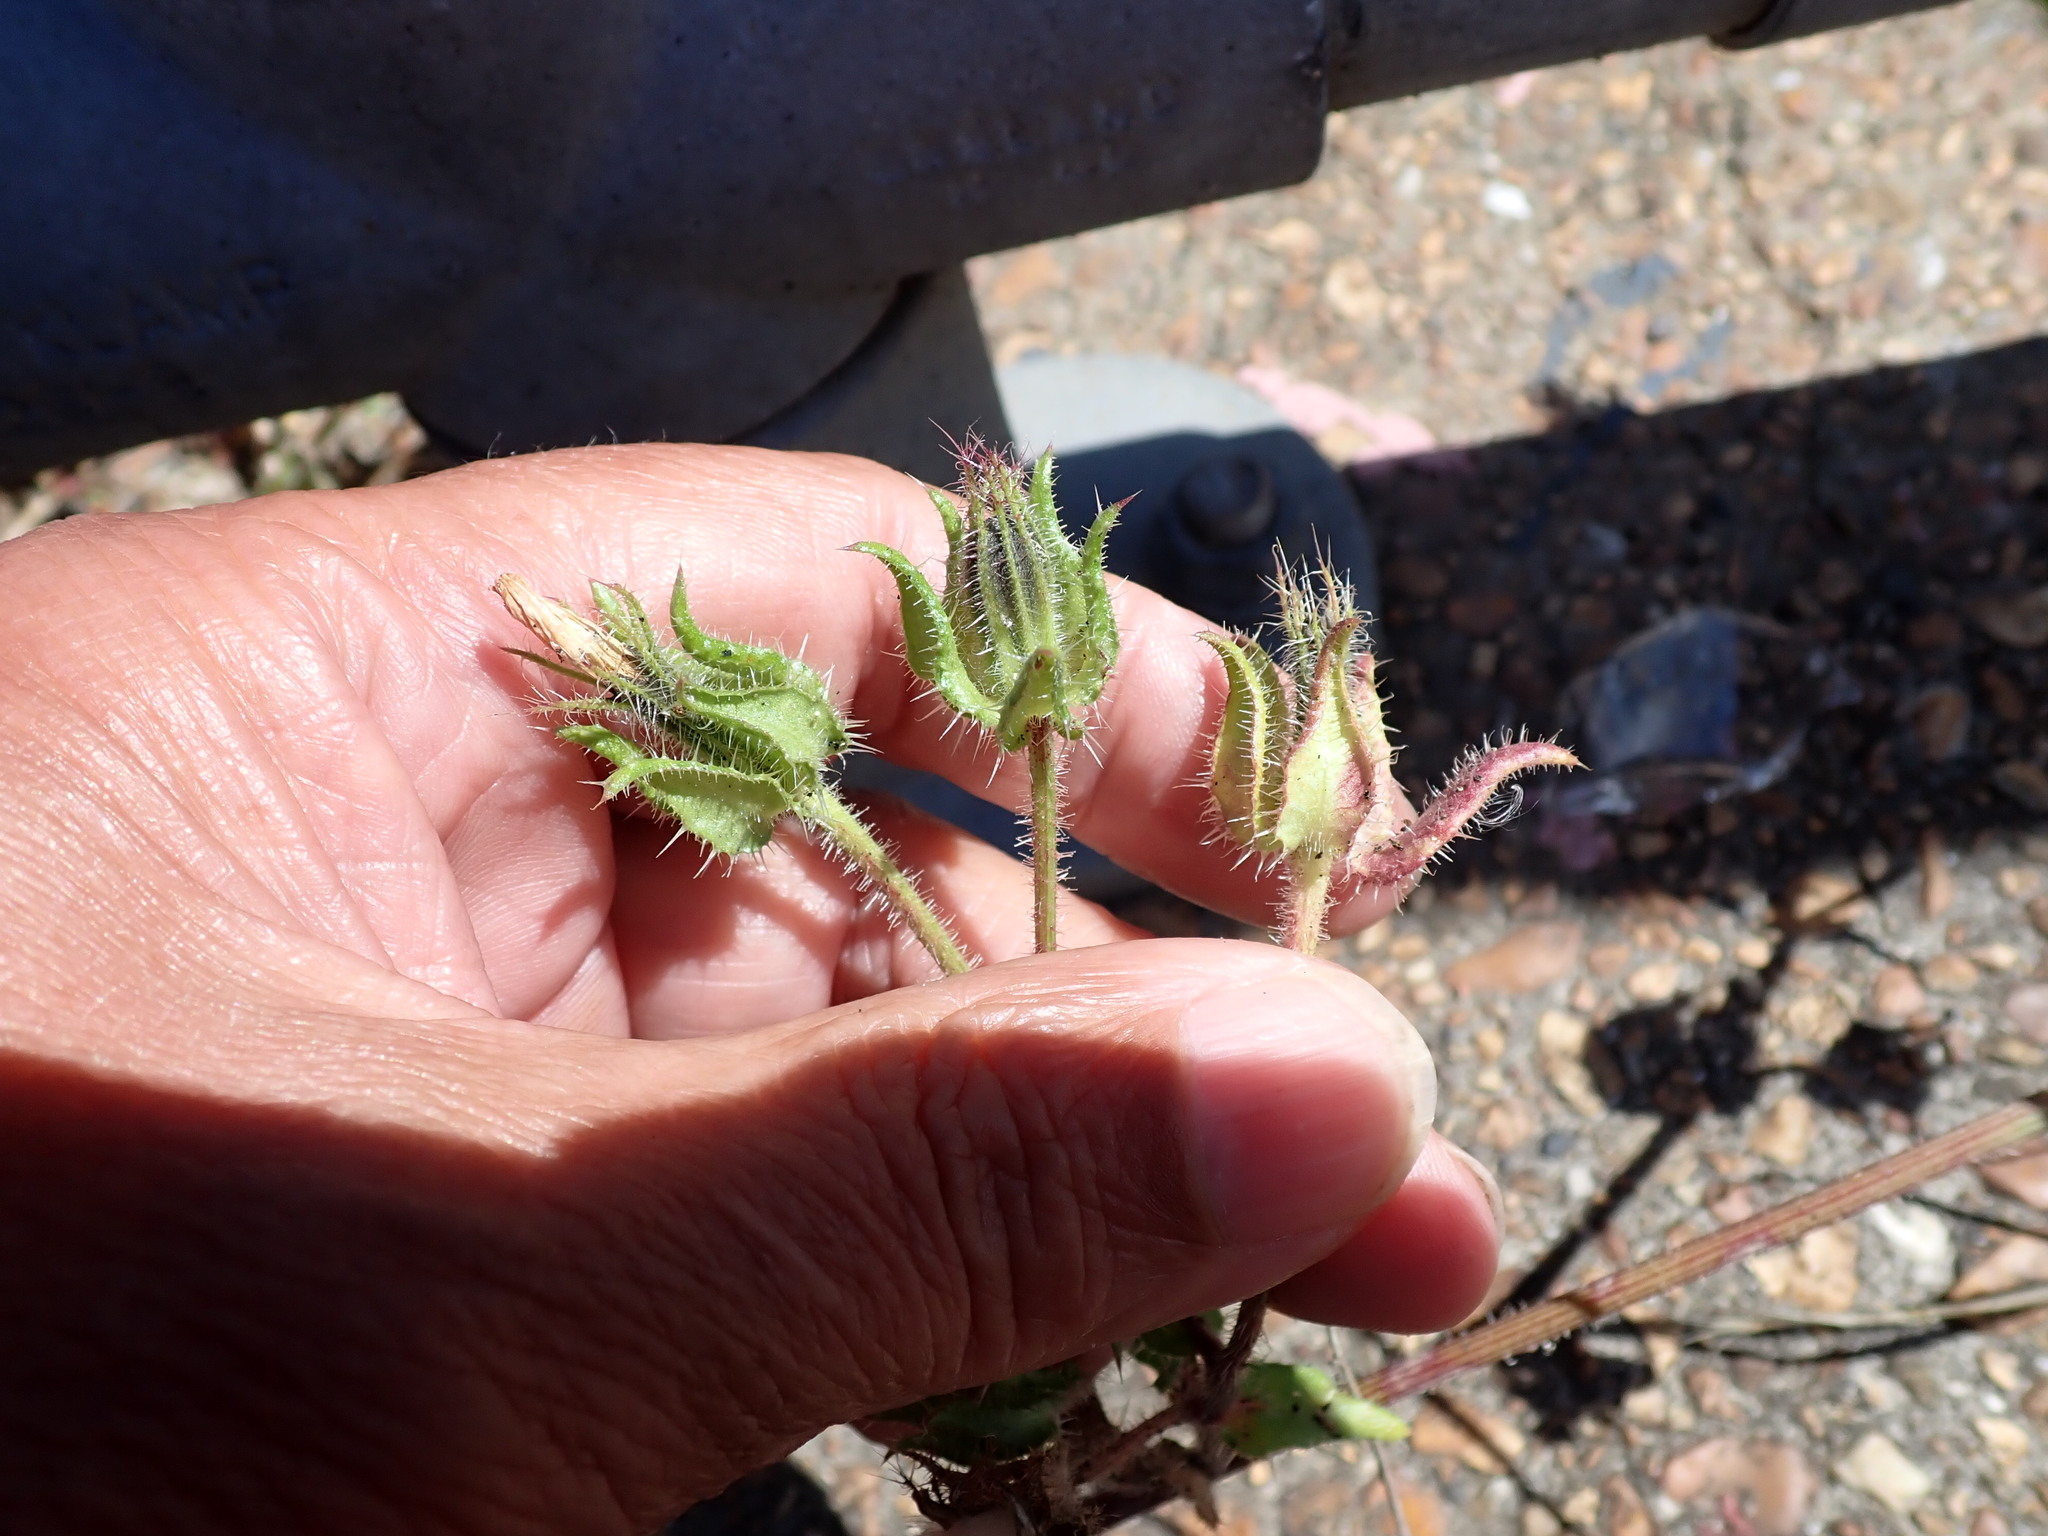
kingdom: Plantae
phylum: Tracheophyta
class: Magnoliopsida
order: Asterales
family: Asteraceae
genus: Helminthotheca
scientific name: Helminthotheca echioides
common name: Ox-tongue
